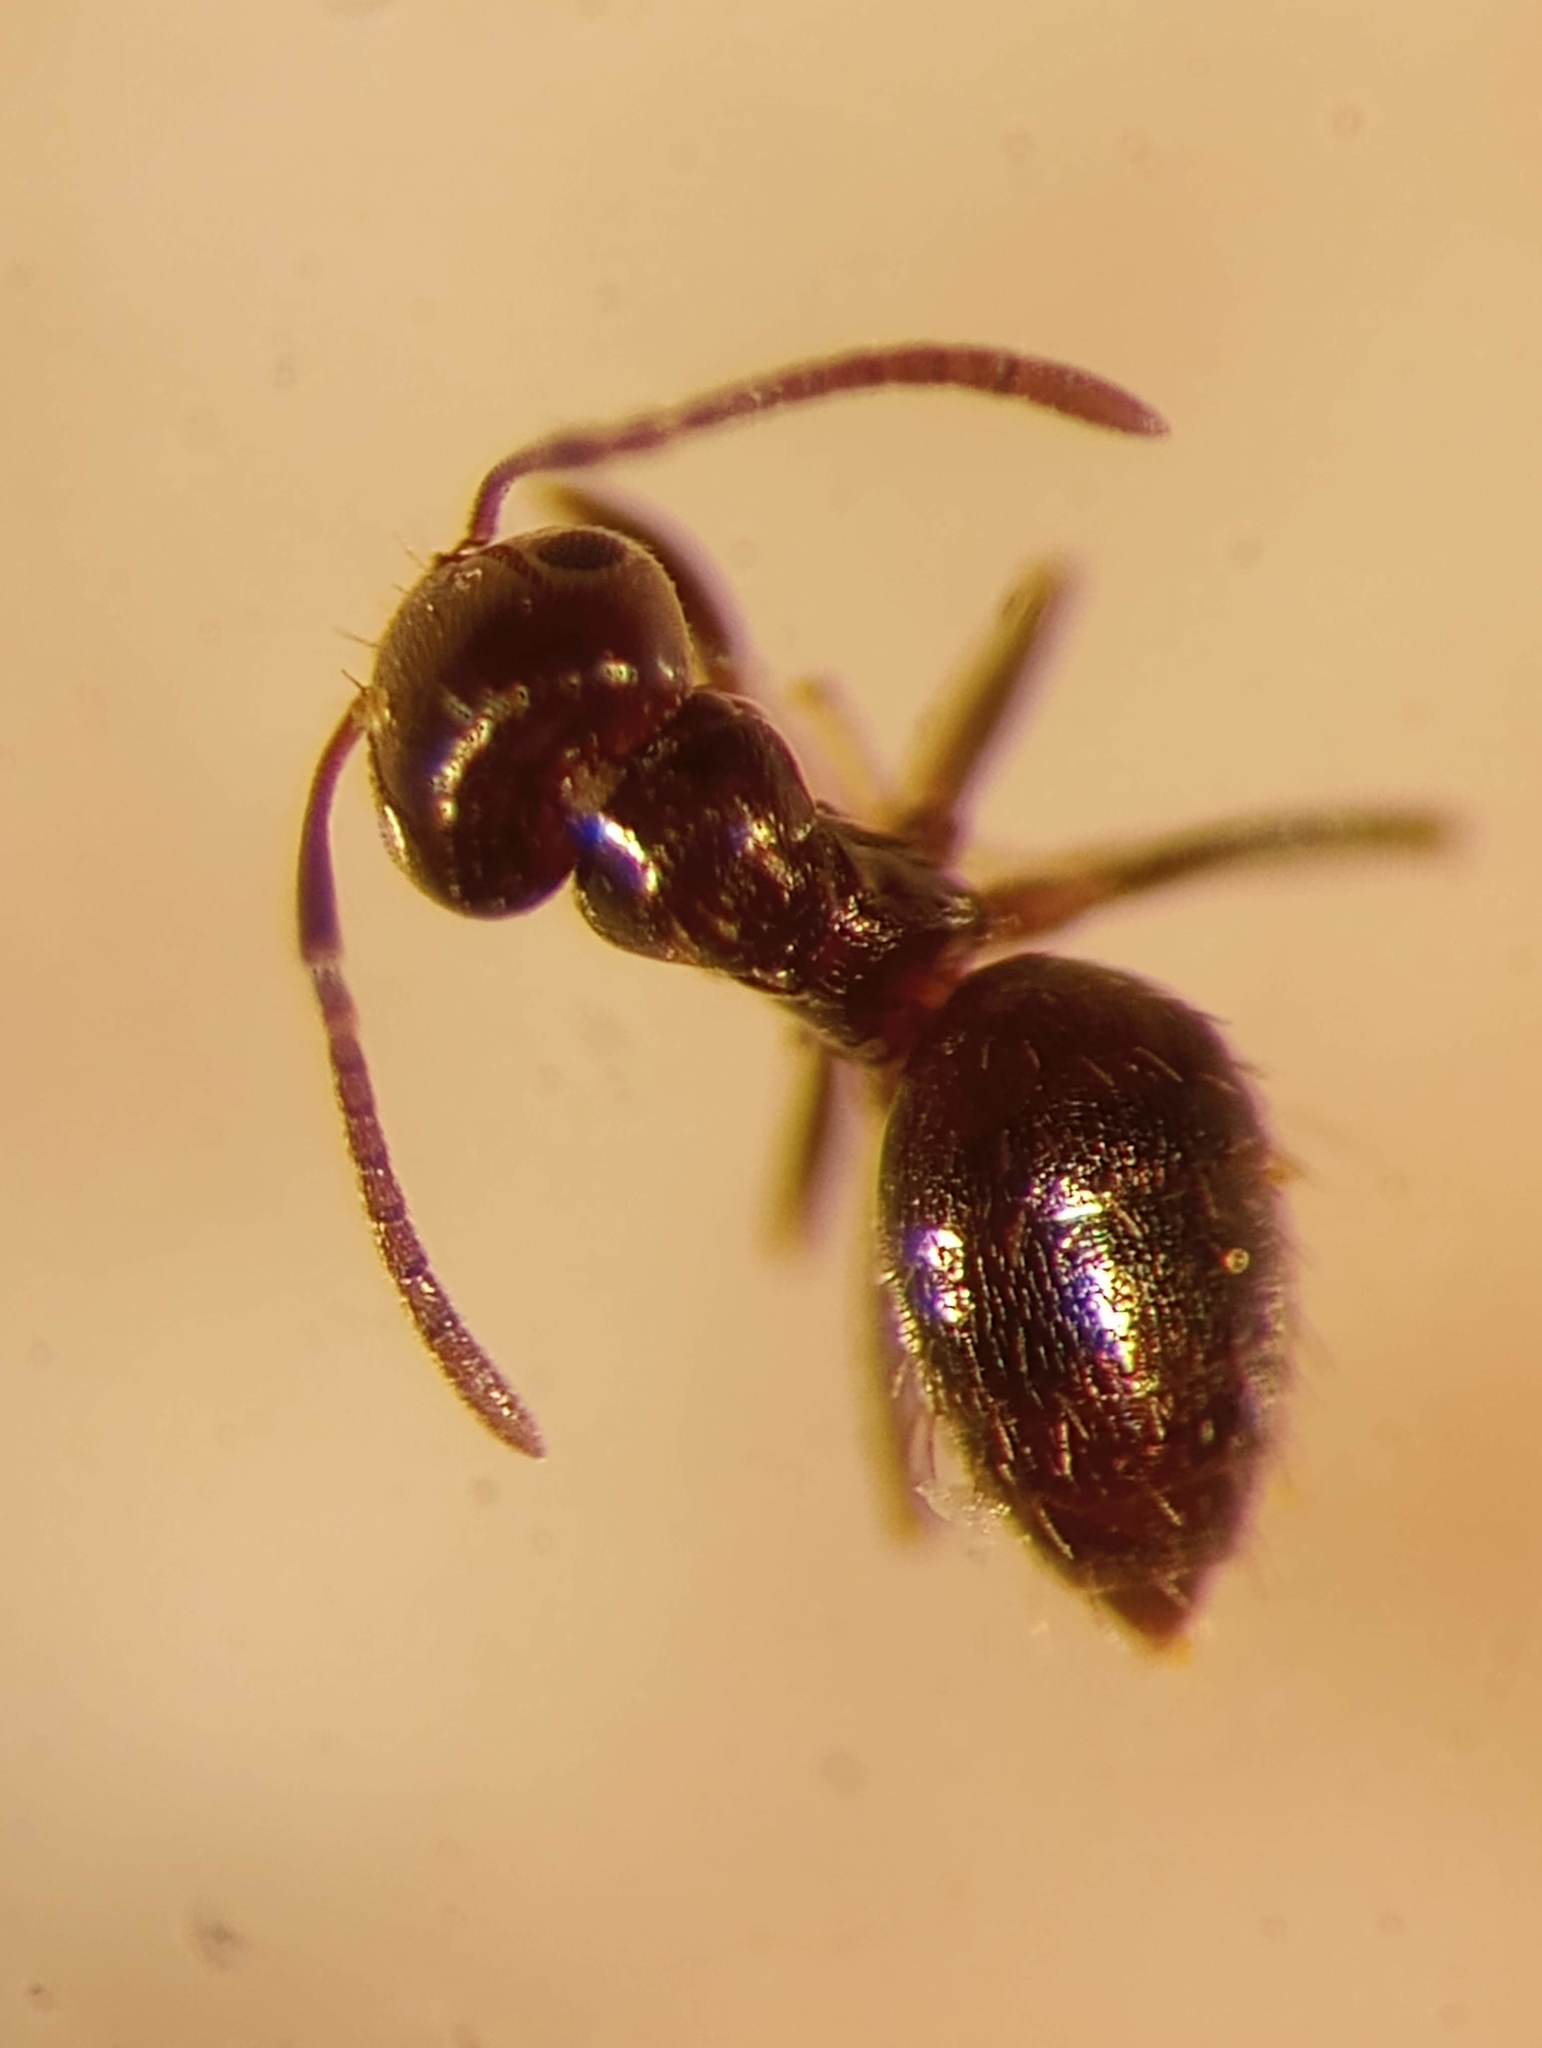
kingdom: Animalia
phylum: Arthropoda
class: Insecta
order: Hymenoptera
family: Formicidae
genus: Brachymyrmex
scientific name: Brachymyrmex patagonicus
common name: Dark rover ant
